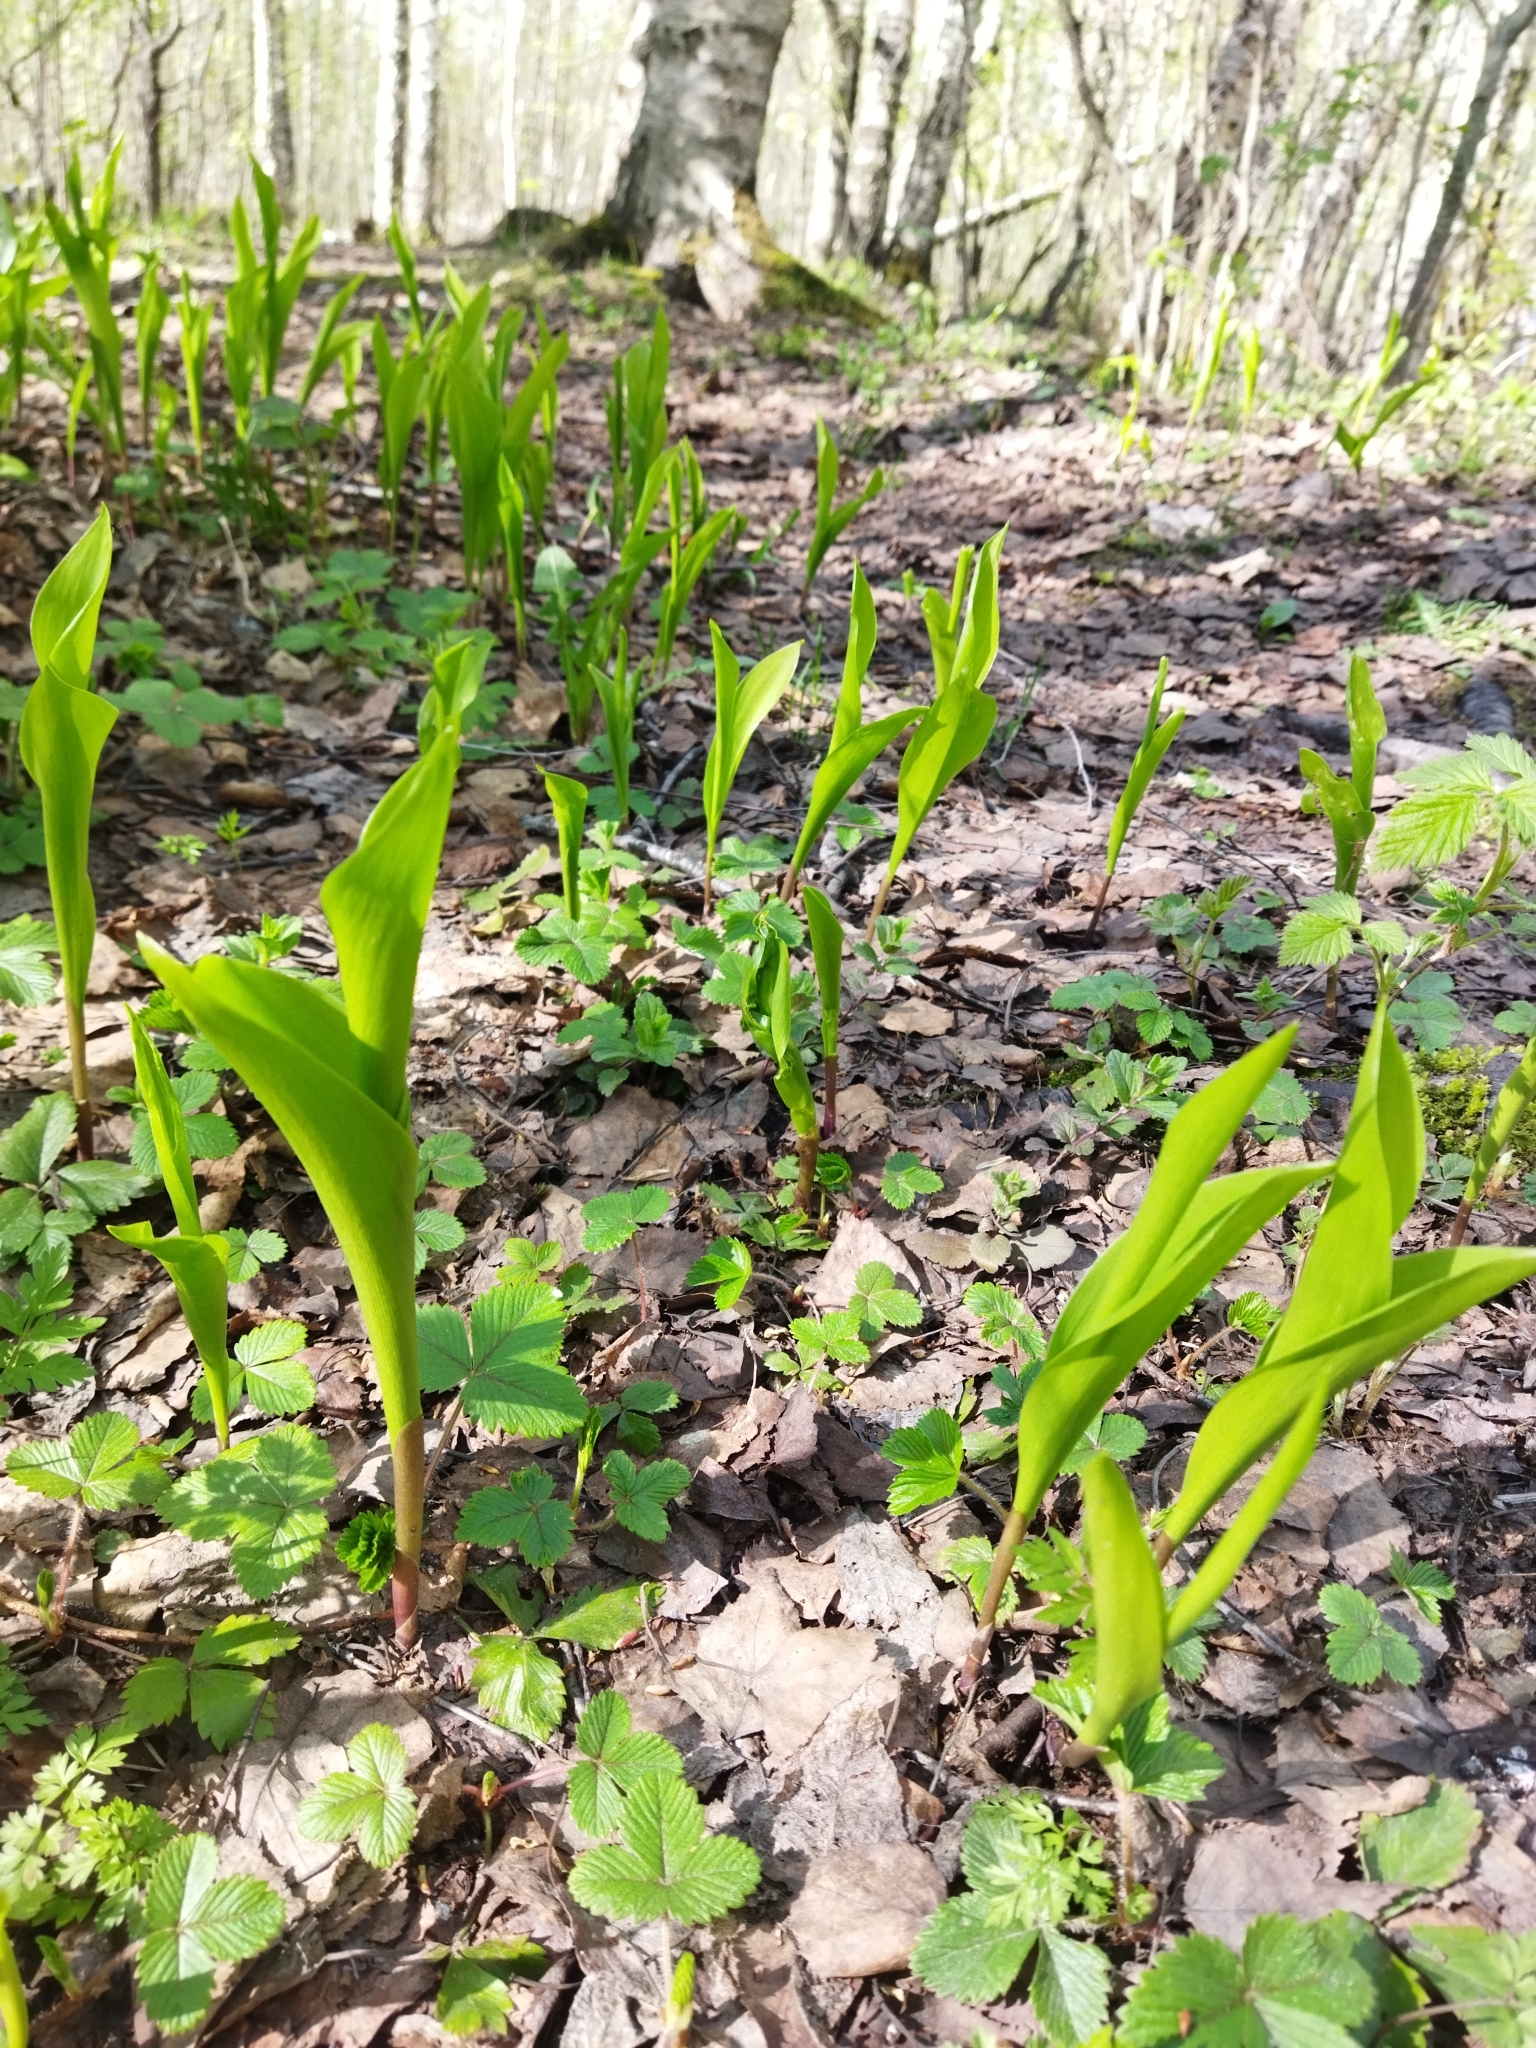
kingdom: Plantae
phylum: Tracheophyta
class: Liliopsida
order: Asparagales
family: Asparagaceae
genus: Convallaria
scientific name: Convallaria majalis
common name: Lily-of-the-valley
